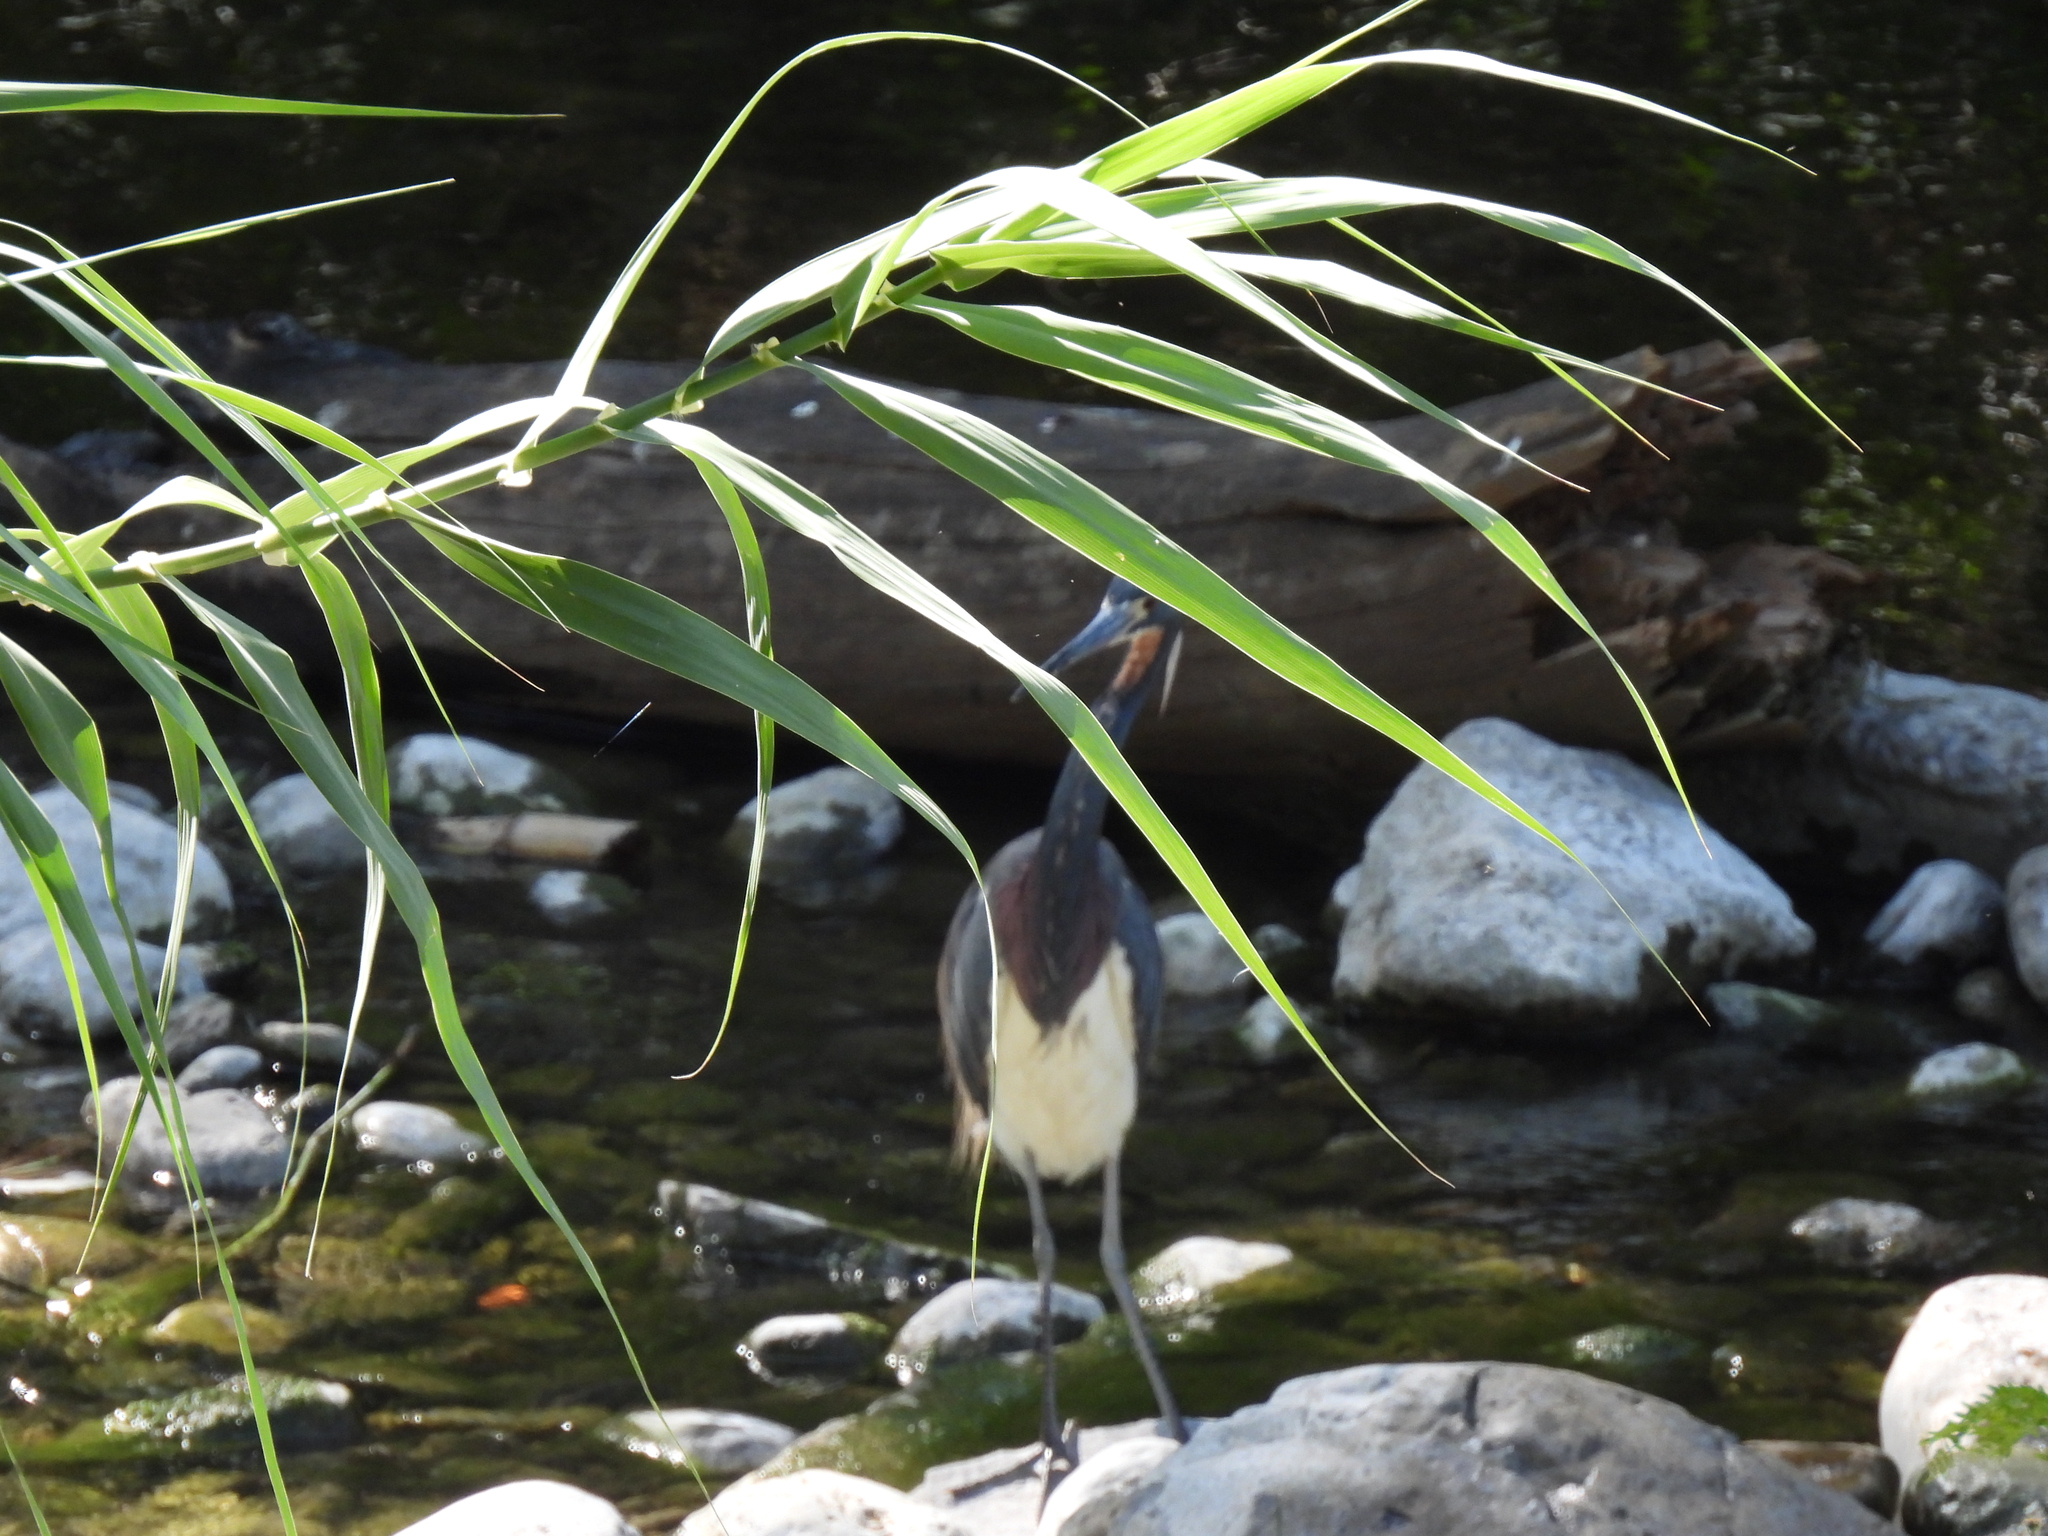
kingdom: Animalia
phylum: Chordata
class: Aves
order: Pelecaniformes
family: Ardeidae
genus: Egretta
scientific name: Egretta tricolor
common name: Tricolored heron
